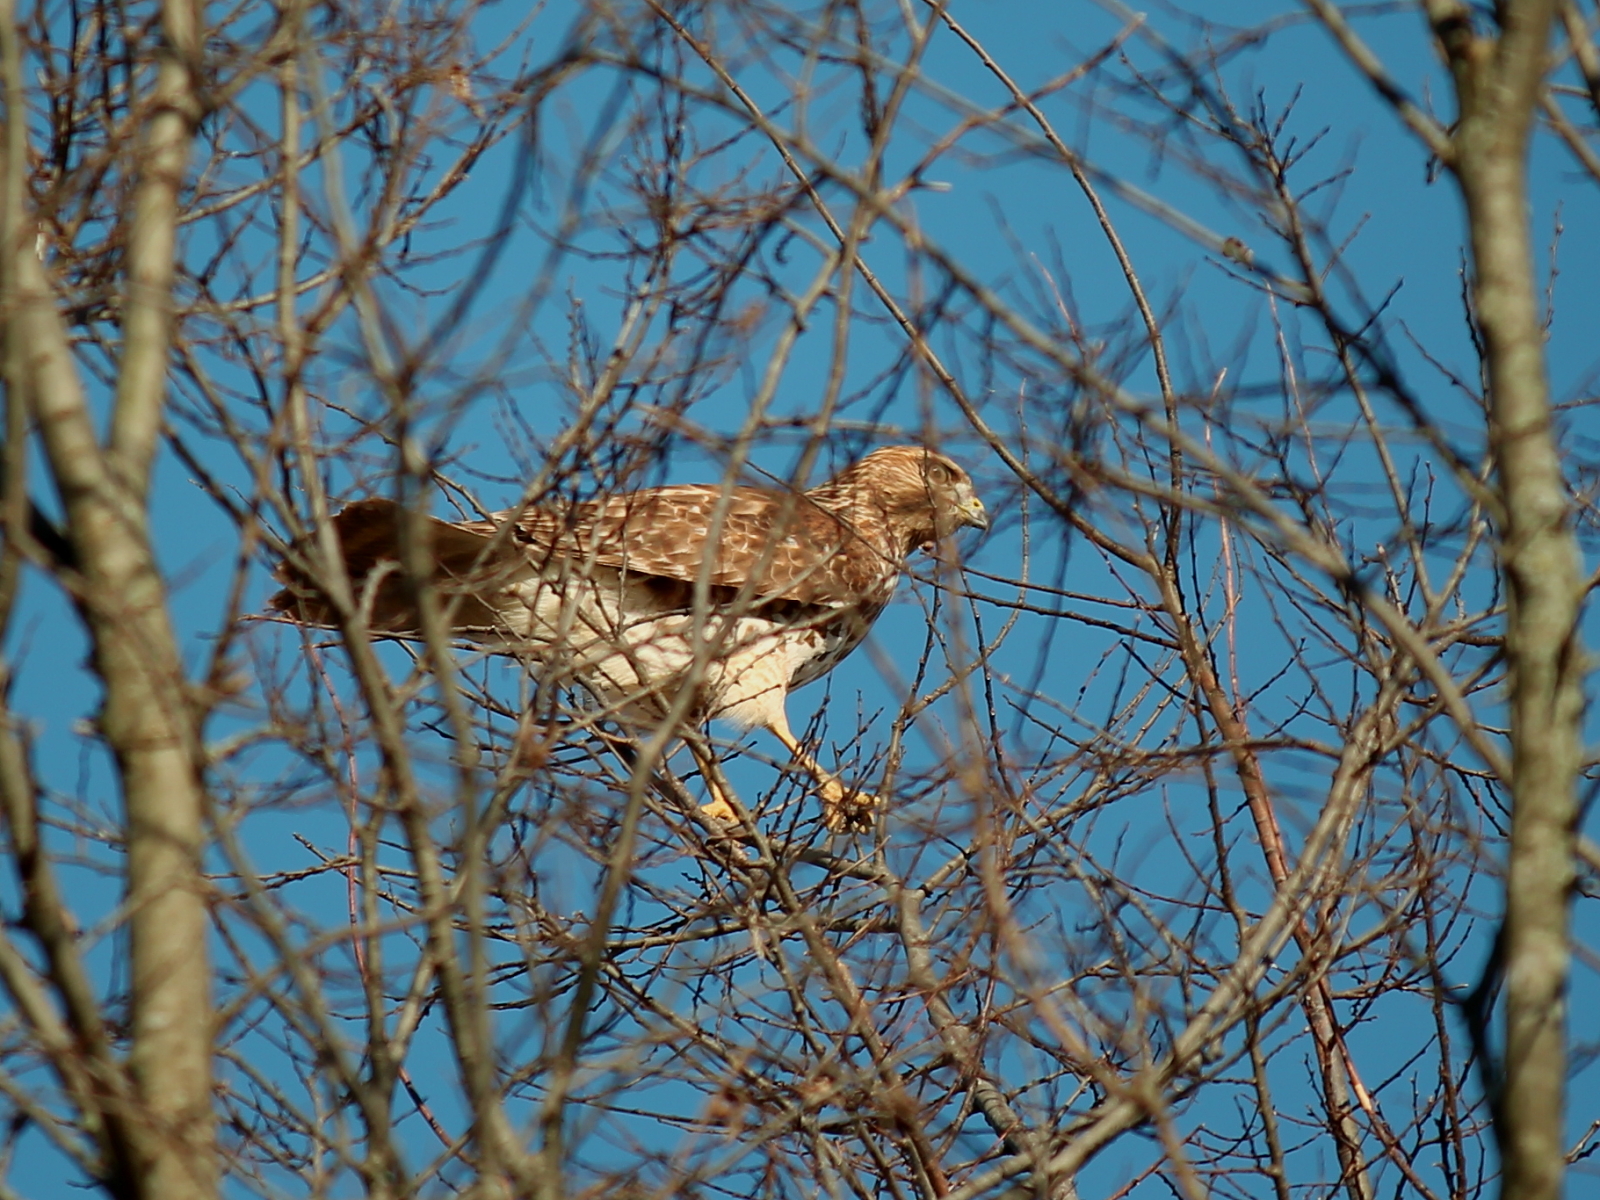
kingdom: Animalia
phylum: Chordata
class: Aves
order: Accipitriformes
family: Accipitridae
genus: Buteo
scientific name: Buteo lineatus
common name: Red-shouldered hawk
